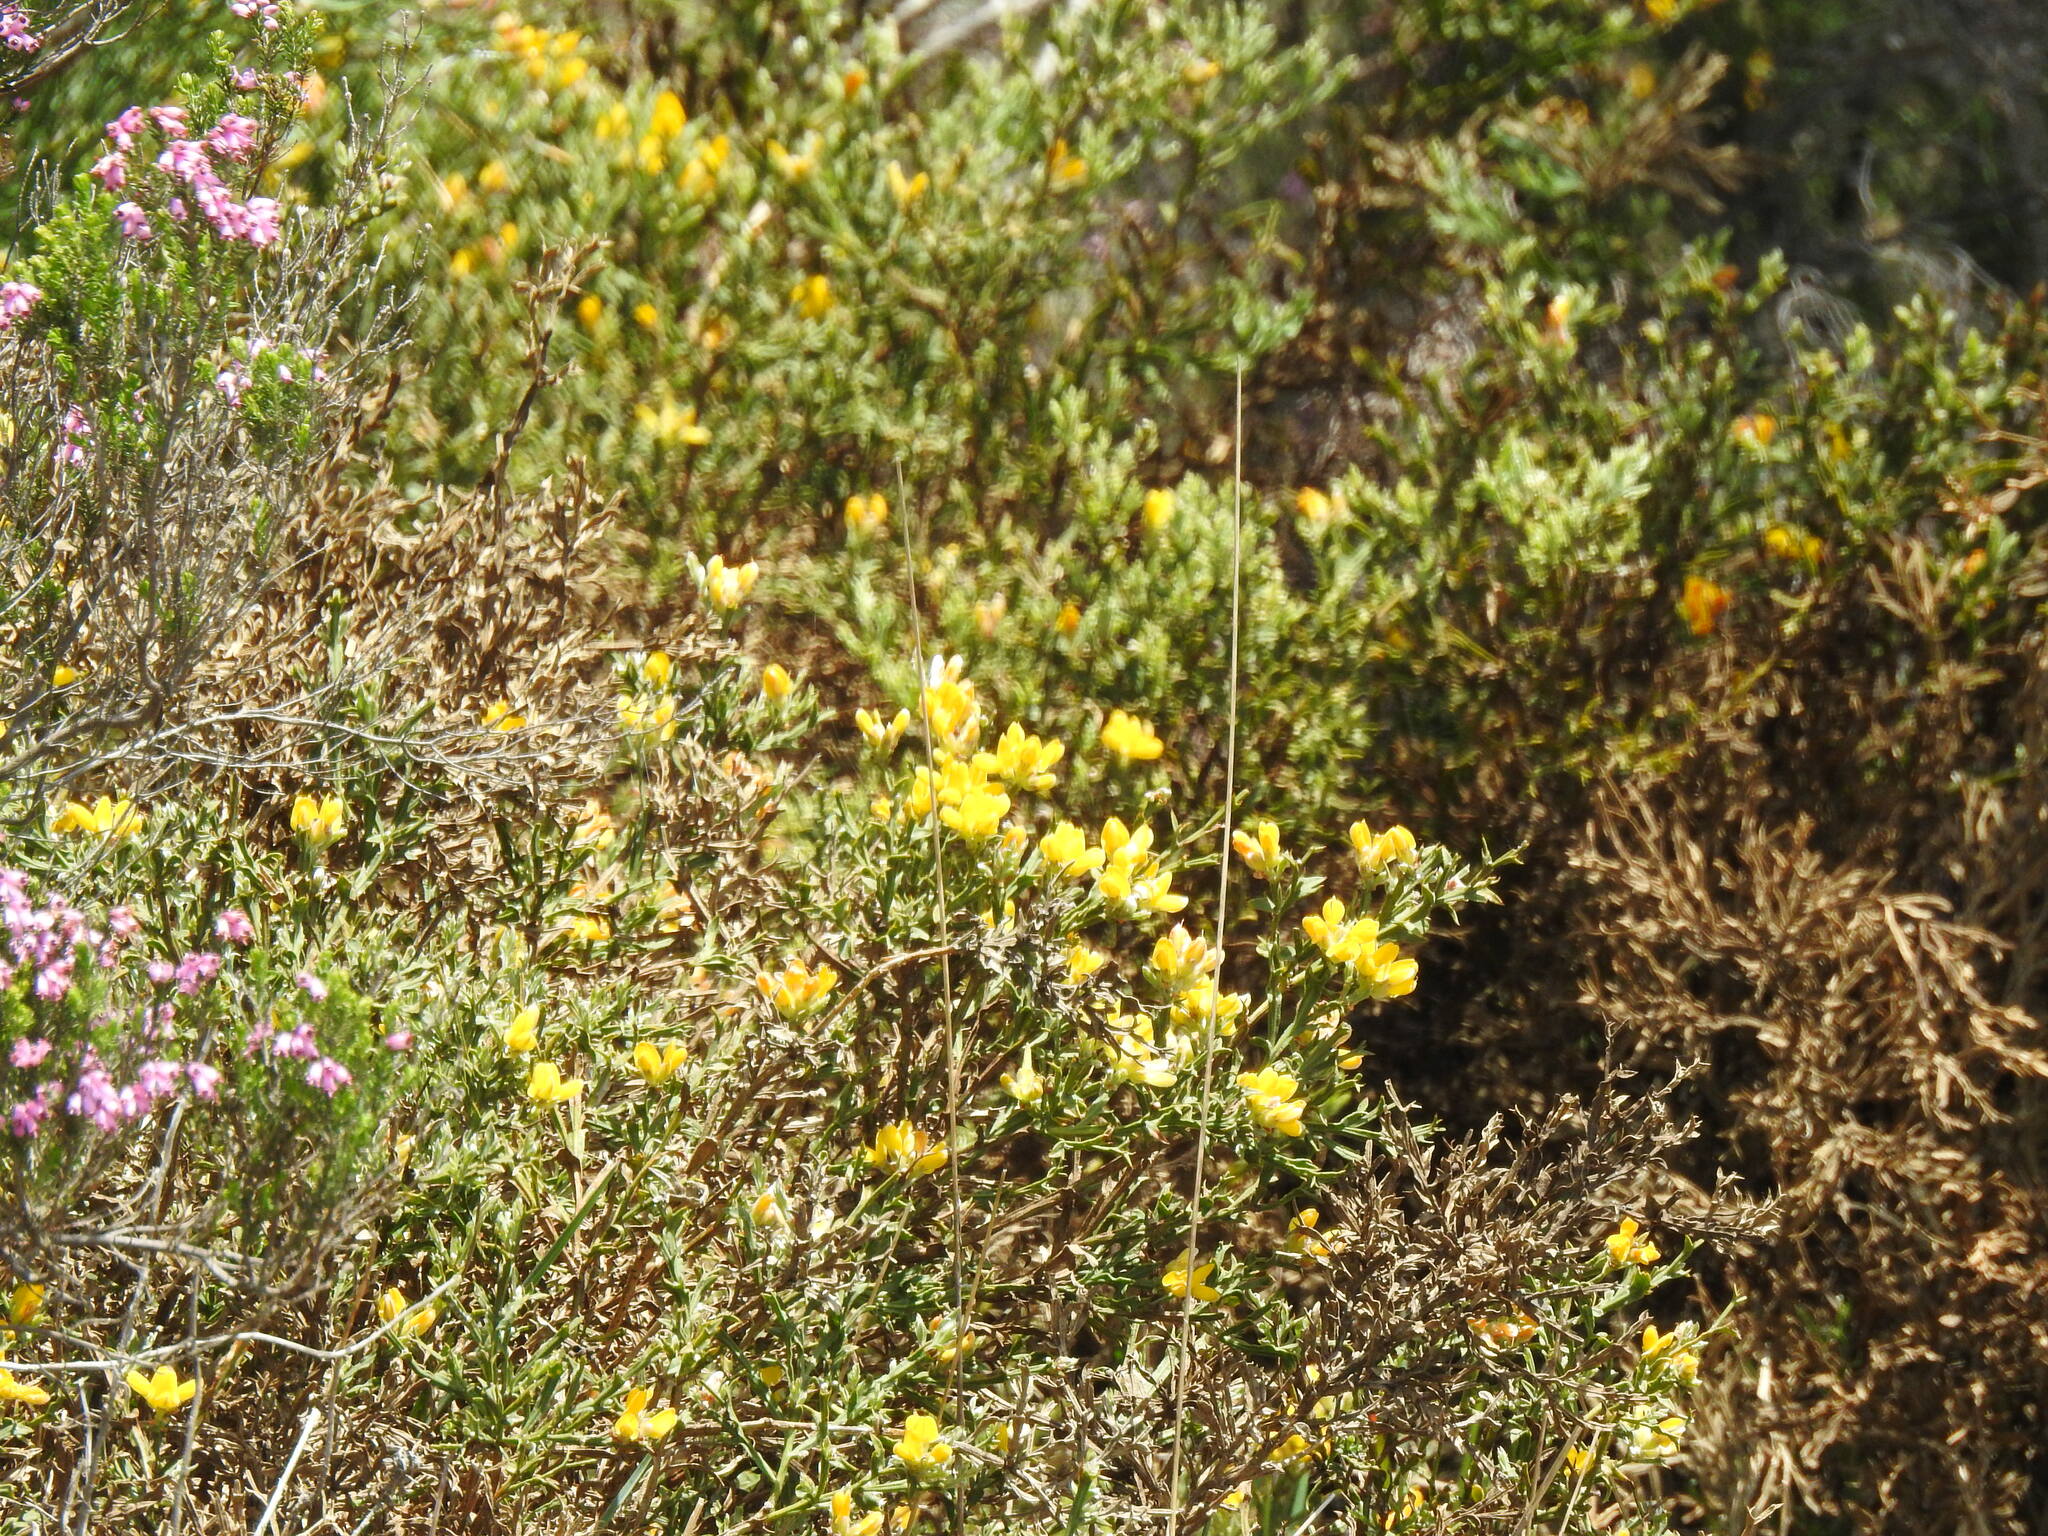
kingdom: Plantae
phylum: Tracheophyta
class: Magnoliopsida
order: Fabales
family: Fabaceae
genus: Genista
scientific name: Genista tridentata
